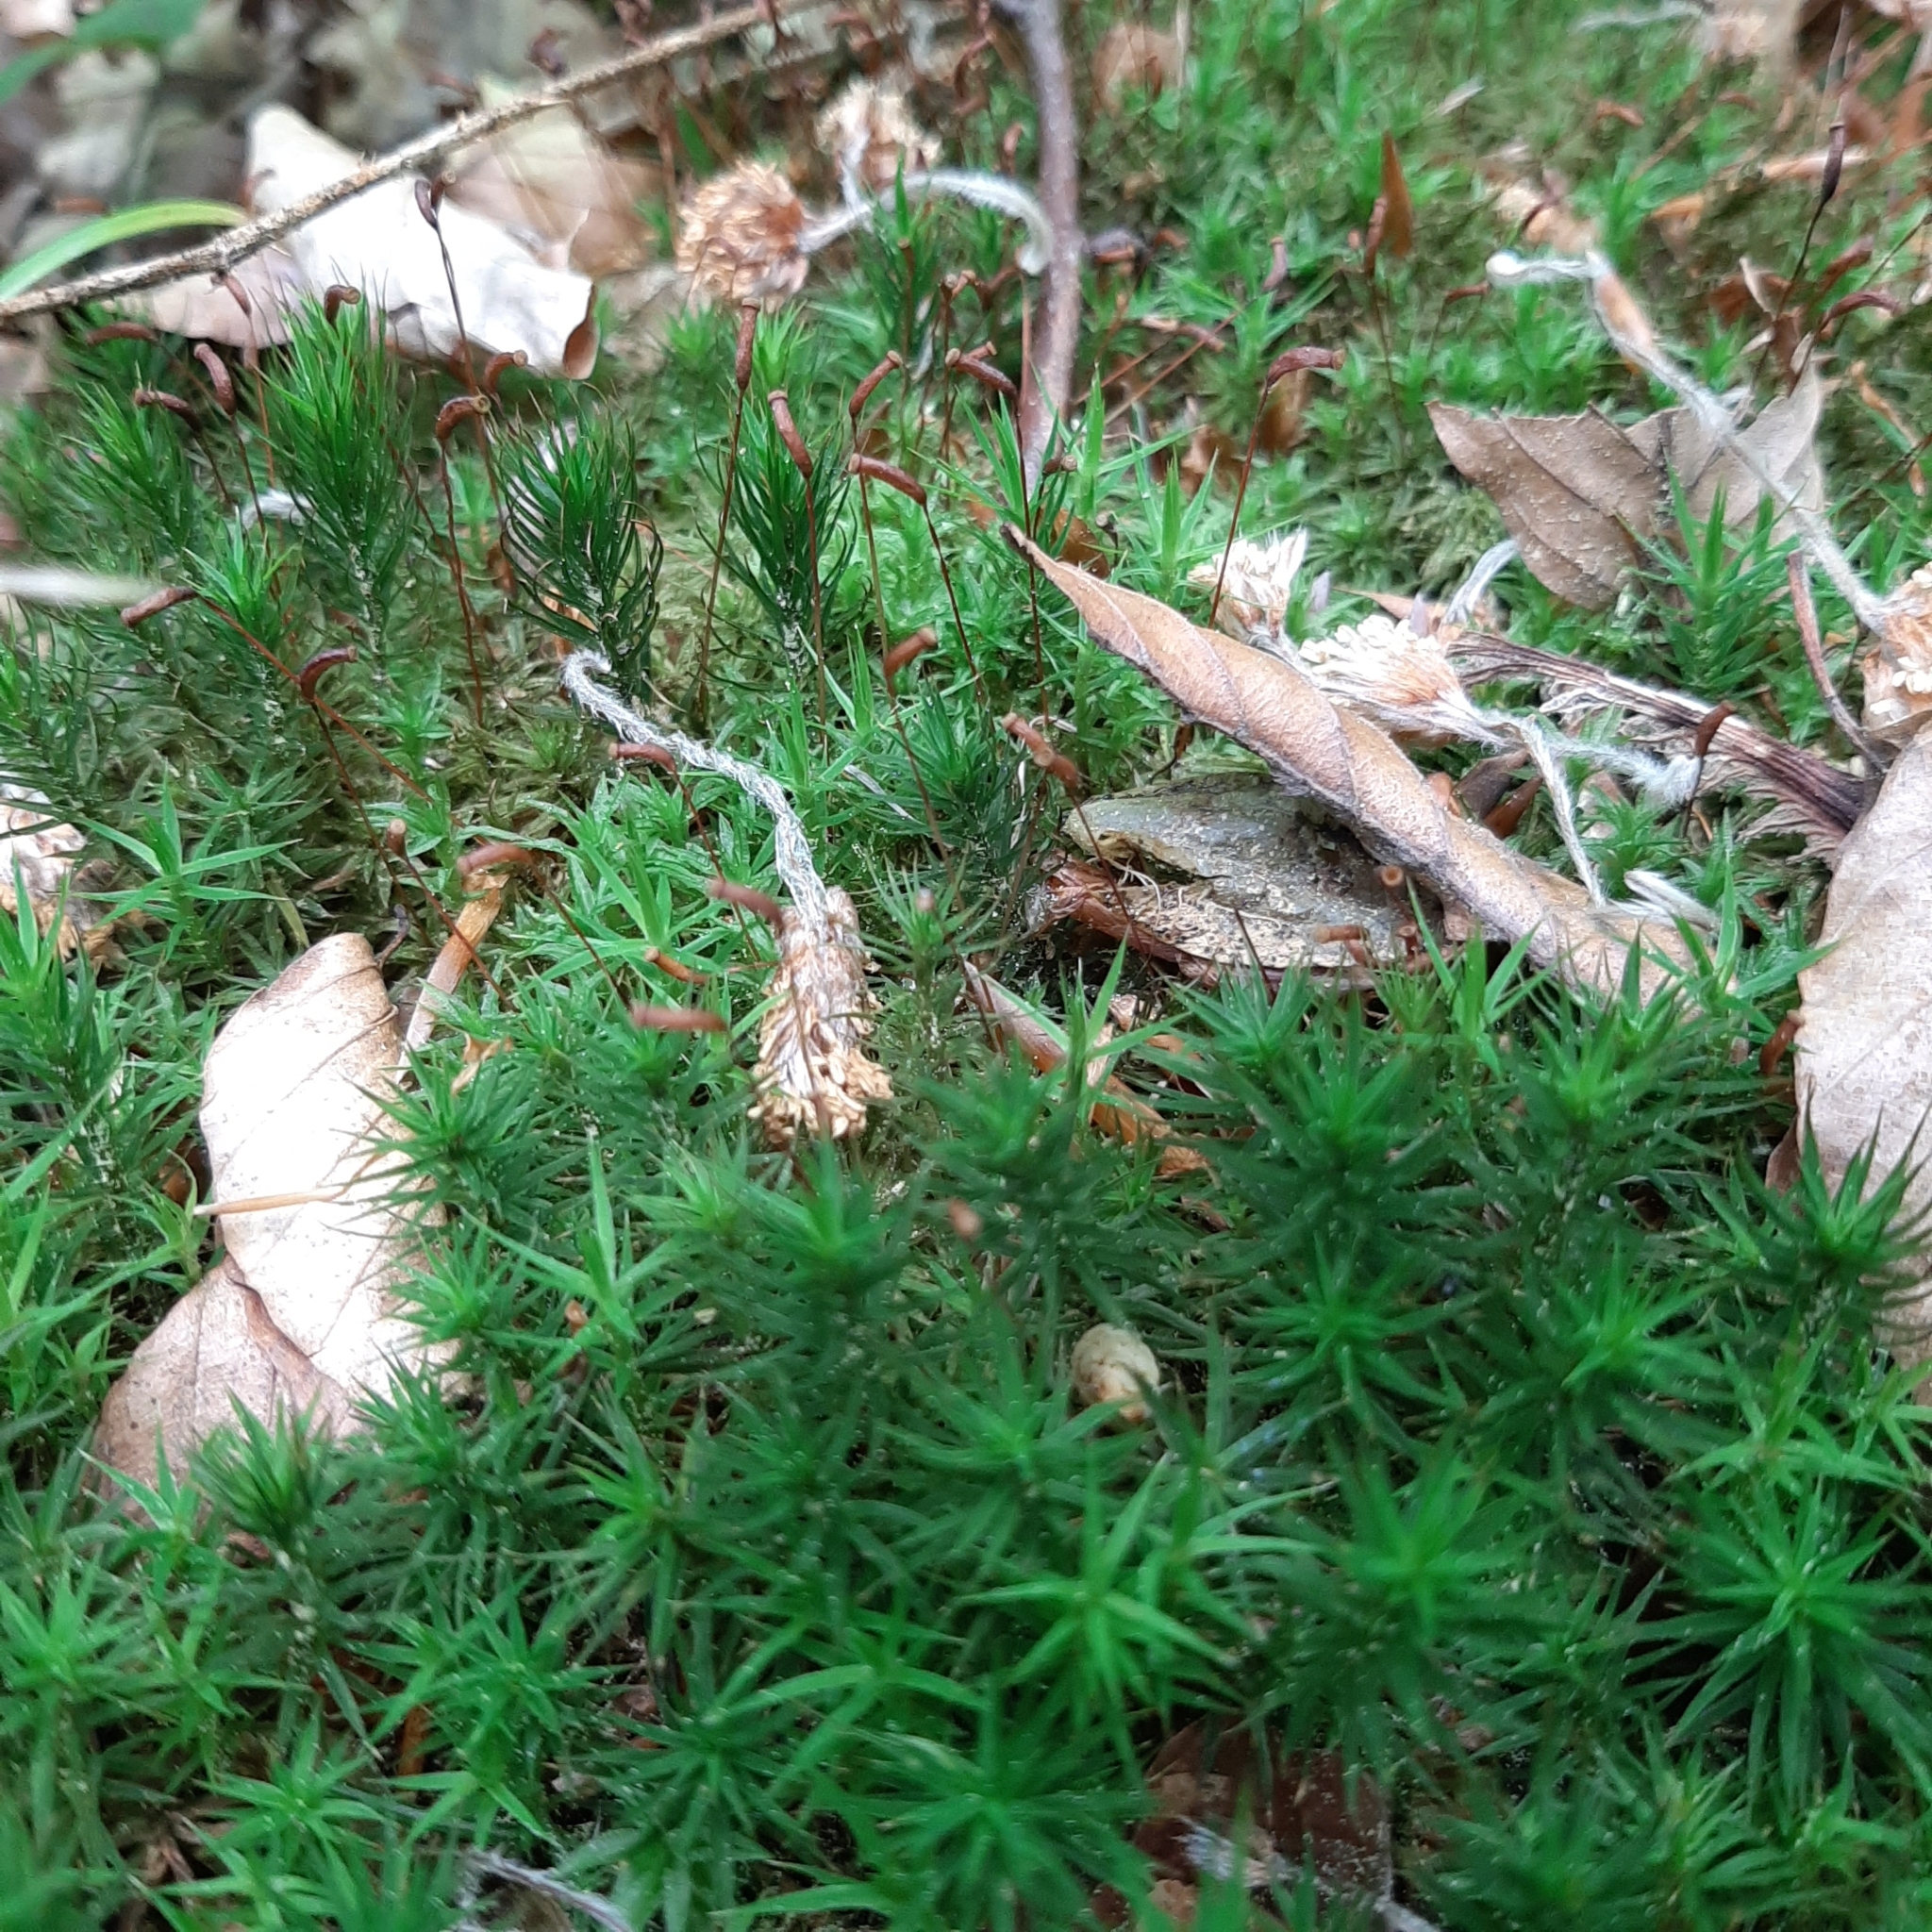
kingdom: Plantae
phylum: Bryophyta
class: Polytrichopsida
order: Polytrichales
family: Polytrichaceae
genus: Polytrichum
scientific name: Polytrichum formosum
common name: Bank haircap moss
